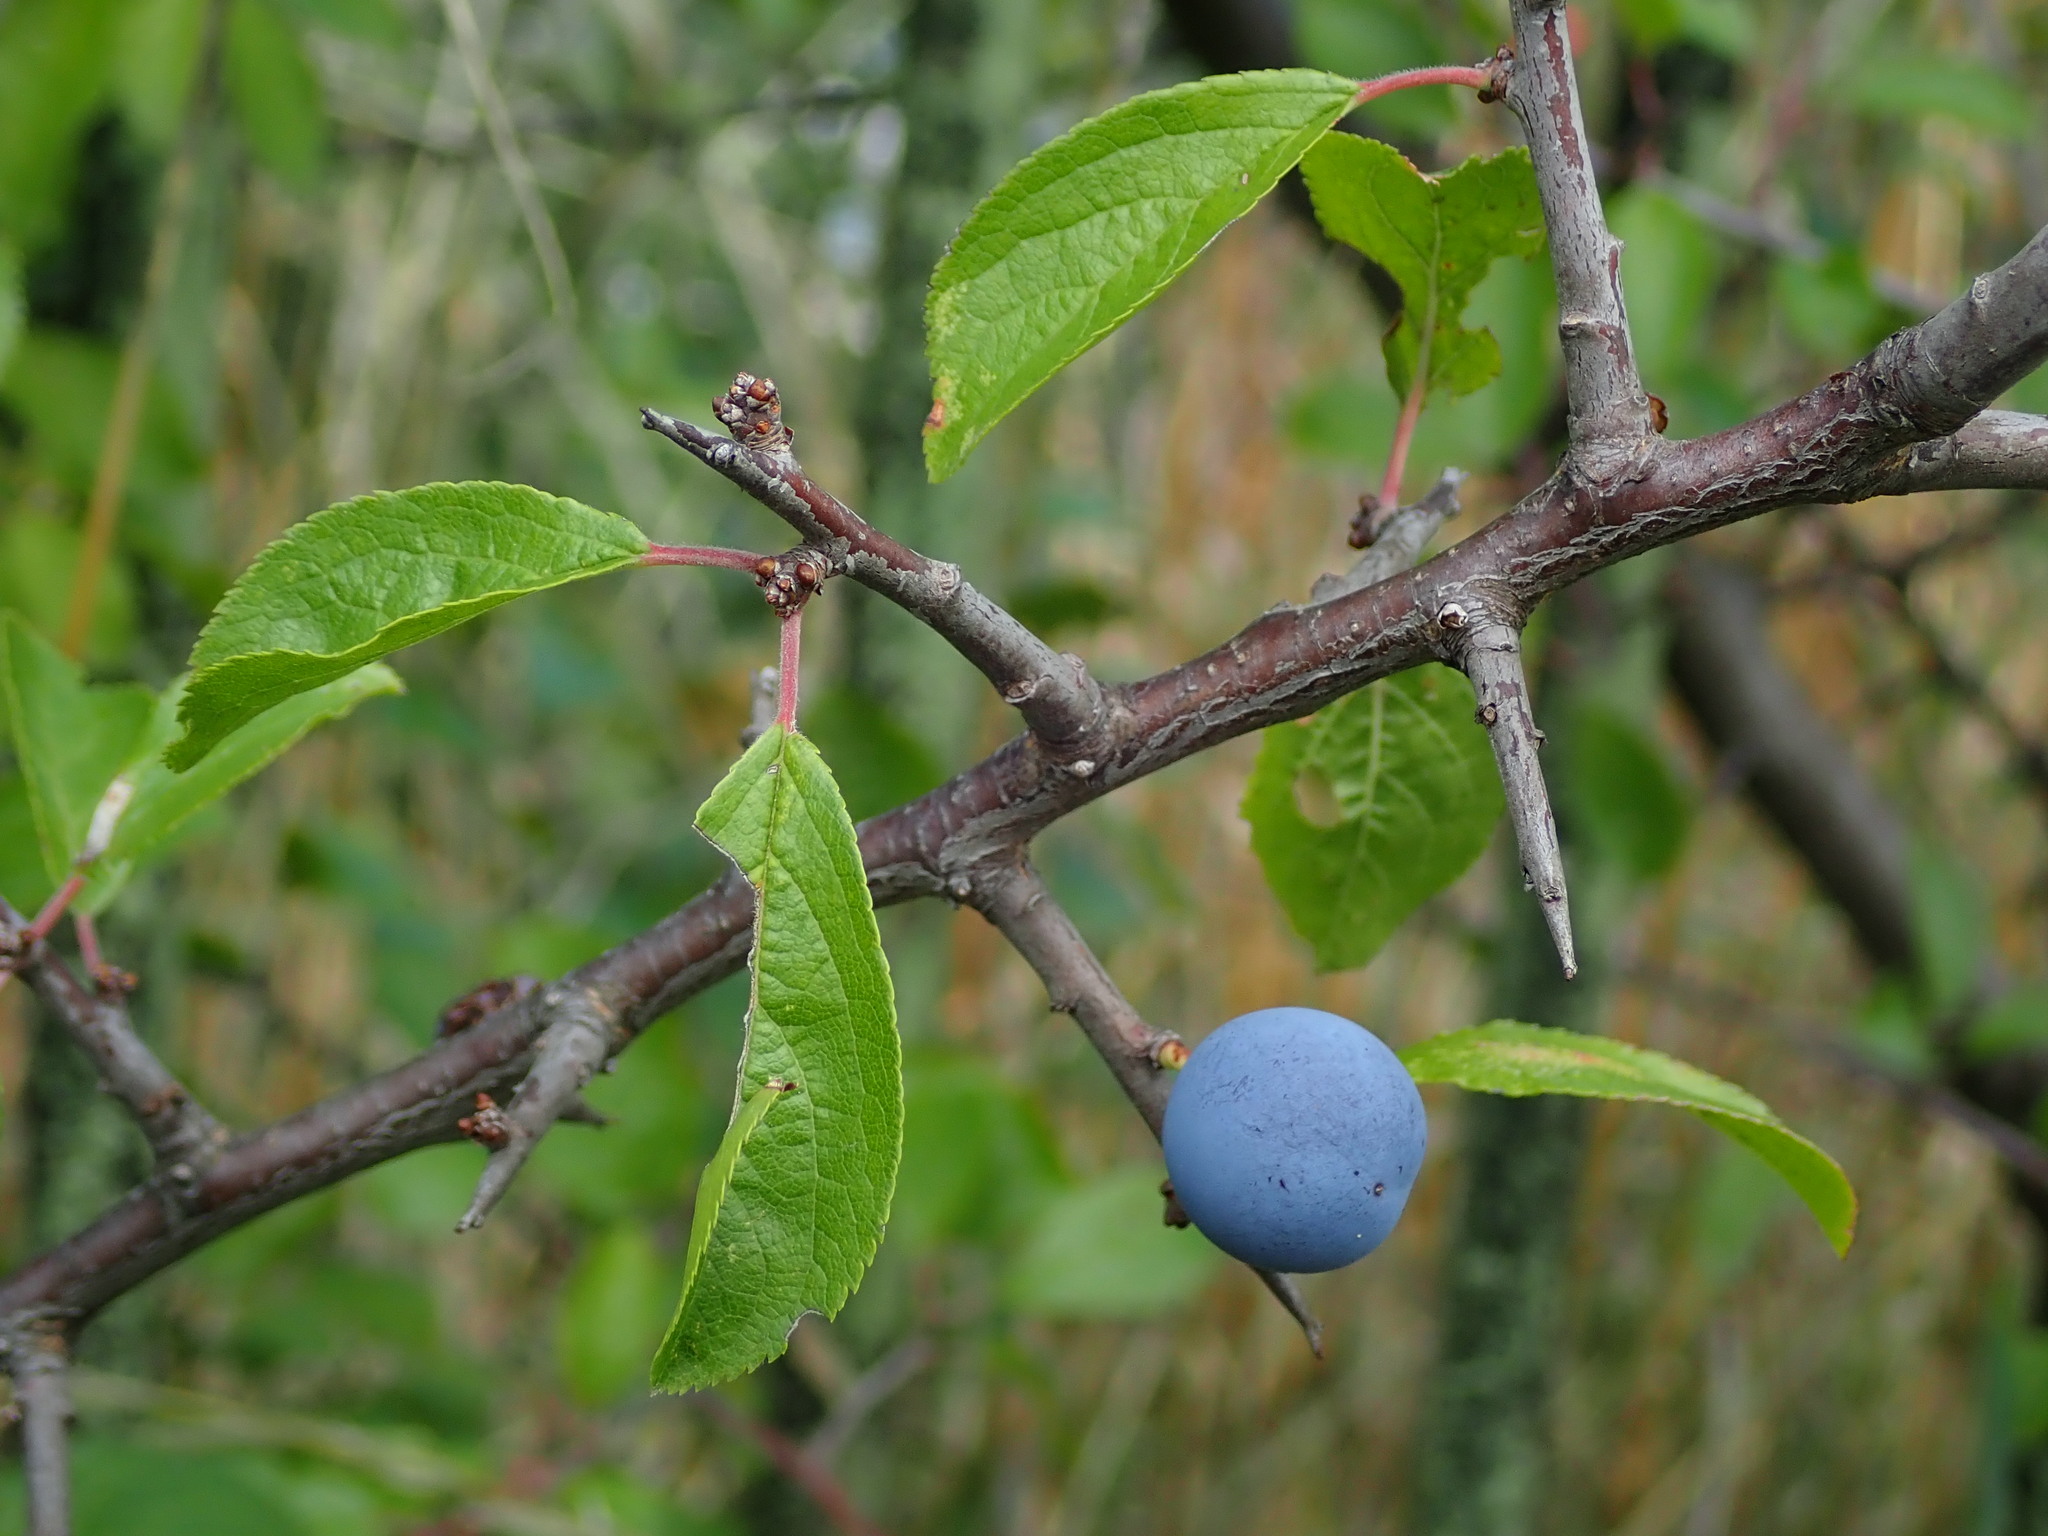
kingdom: Plantae
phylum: Tracheophyta
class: Magnoliopsida
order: Rosales
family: Rosaceae
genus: Prunus
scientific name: Prunus spinosa
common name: Blackthorn
